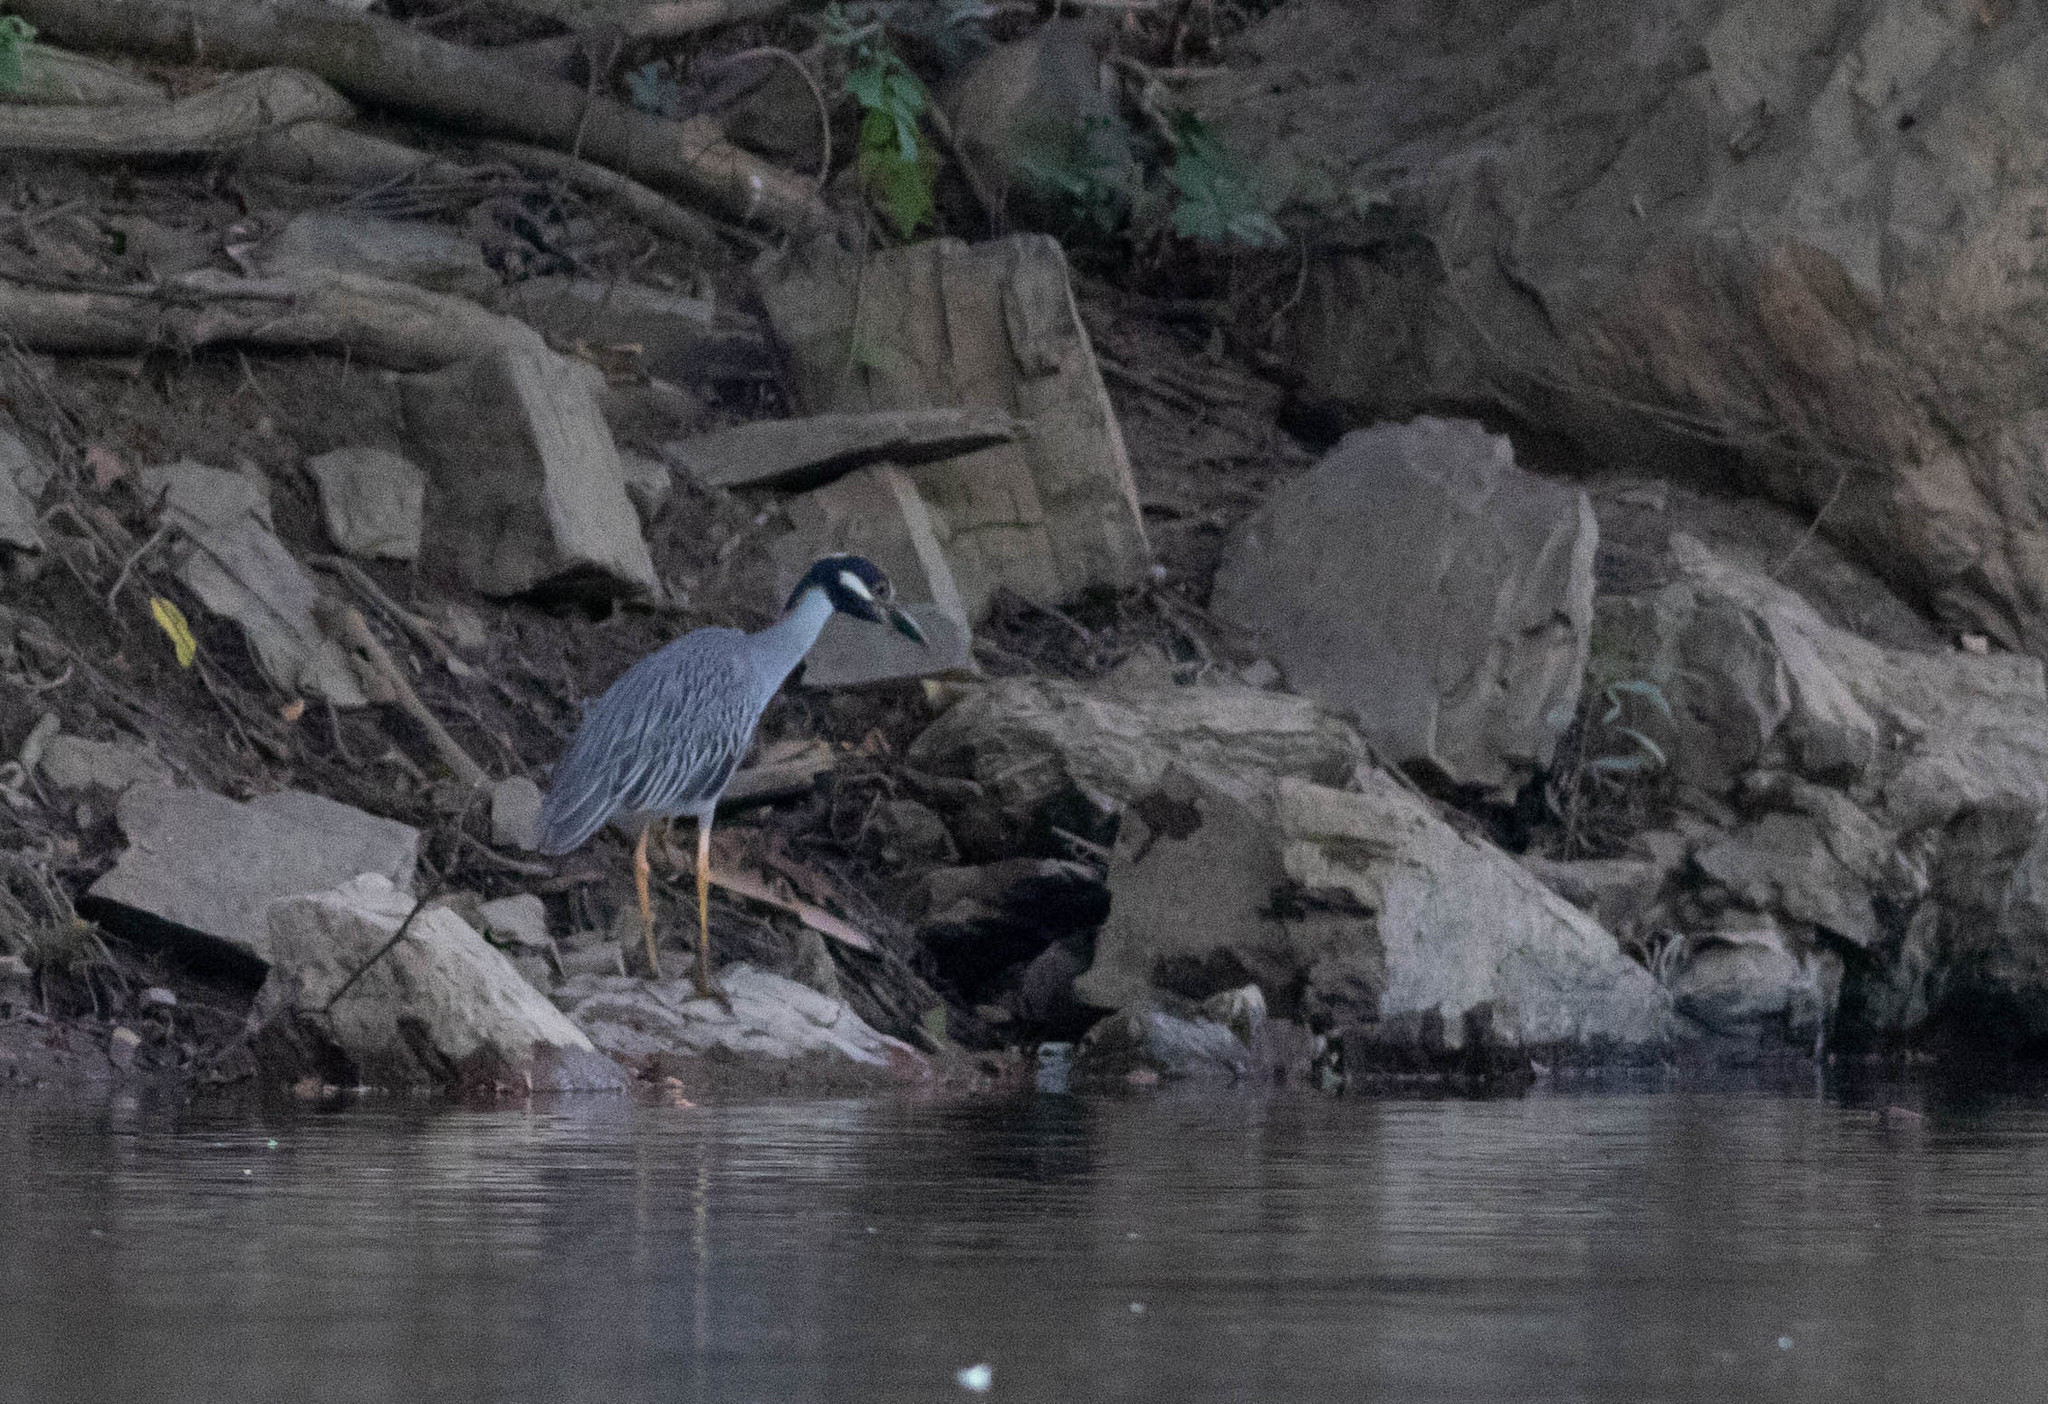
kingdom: Animalia
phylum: Chordata
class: Aves
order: Pelecaniformes
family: Ardeidae
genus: Nyctanassa
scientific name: Nyctanassa violacea
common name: Yellow-crowned night heron
